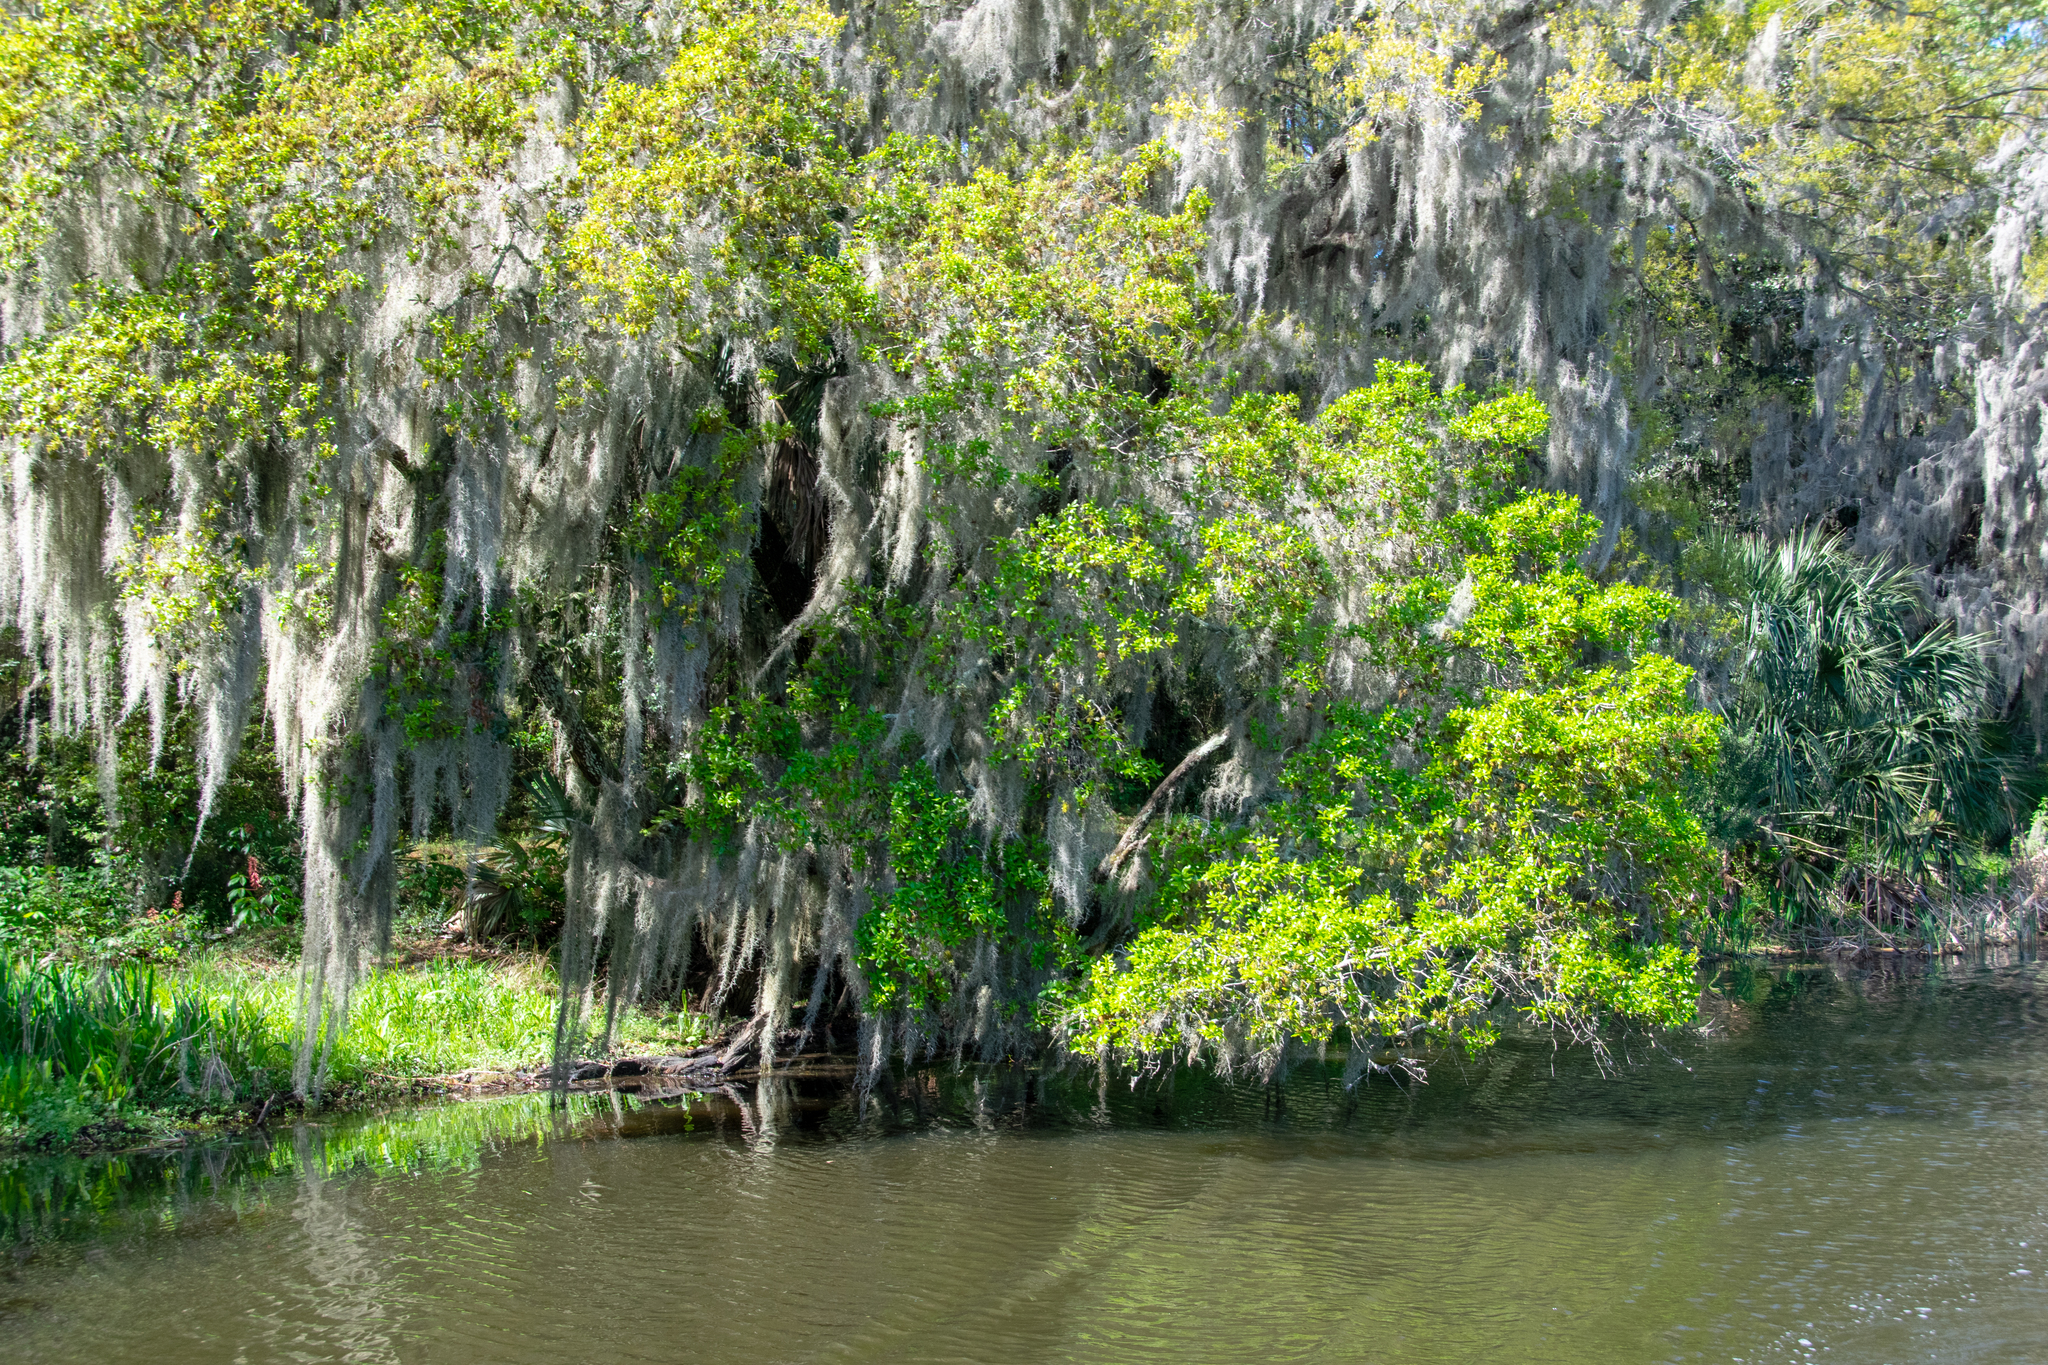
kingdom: Plantae
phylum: Tracheophyta
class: Liliopsida
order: Poales
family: Bromeliaceae
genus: Tillandsia
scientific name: Tillandsia usneoides
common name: Spanish moss
